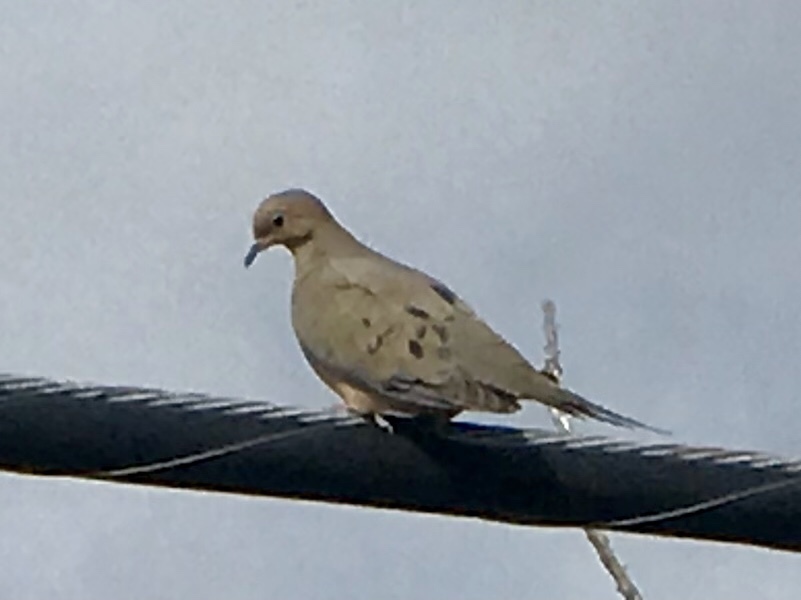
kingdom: Animalia
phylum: Chordata
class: Aves
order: Columbiformes
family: Columbidae
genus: Zenaida
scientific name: Zenaida macroura
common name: Mourning dove
